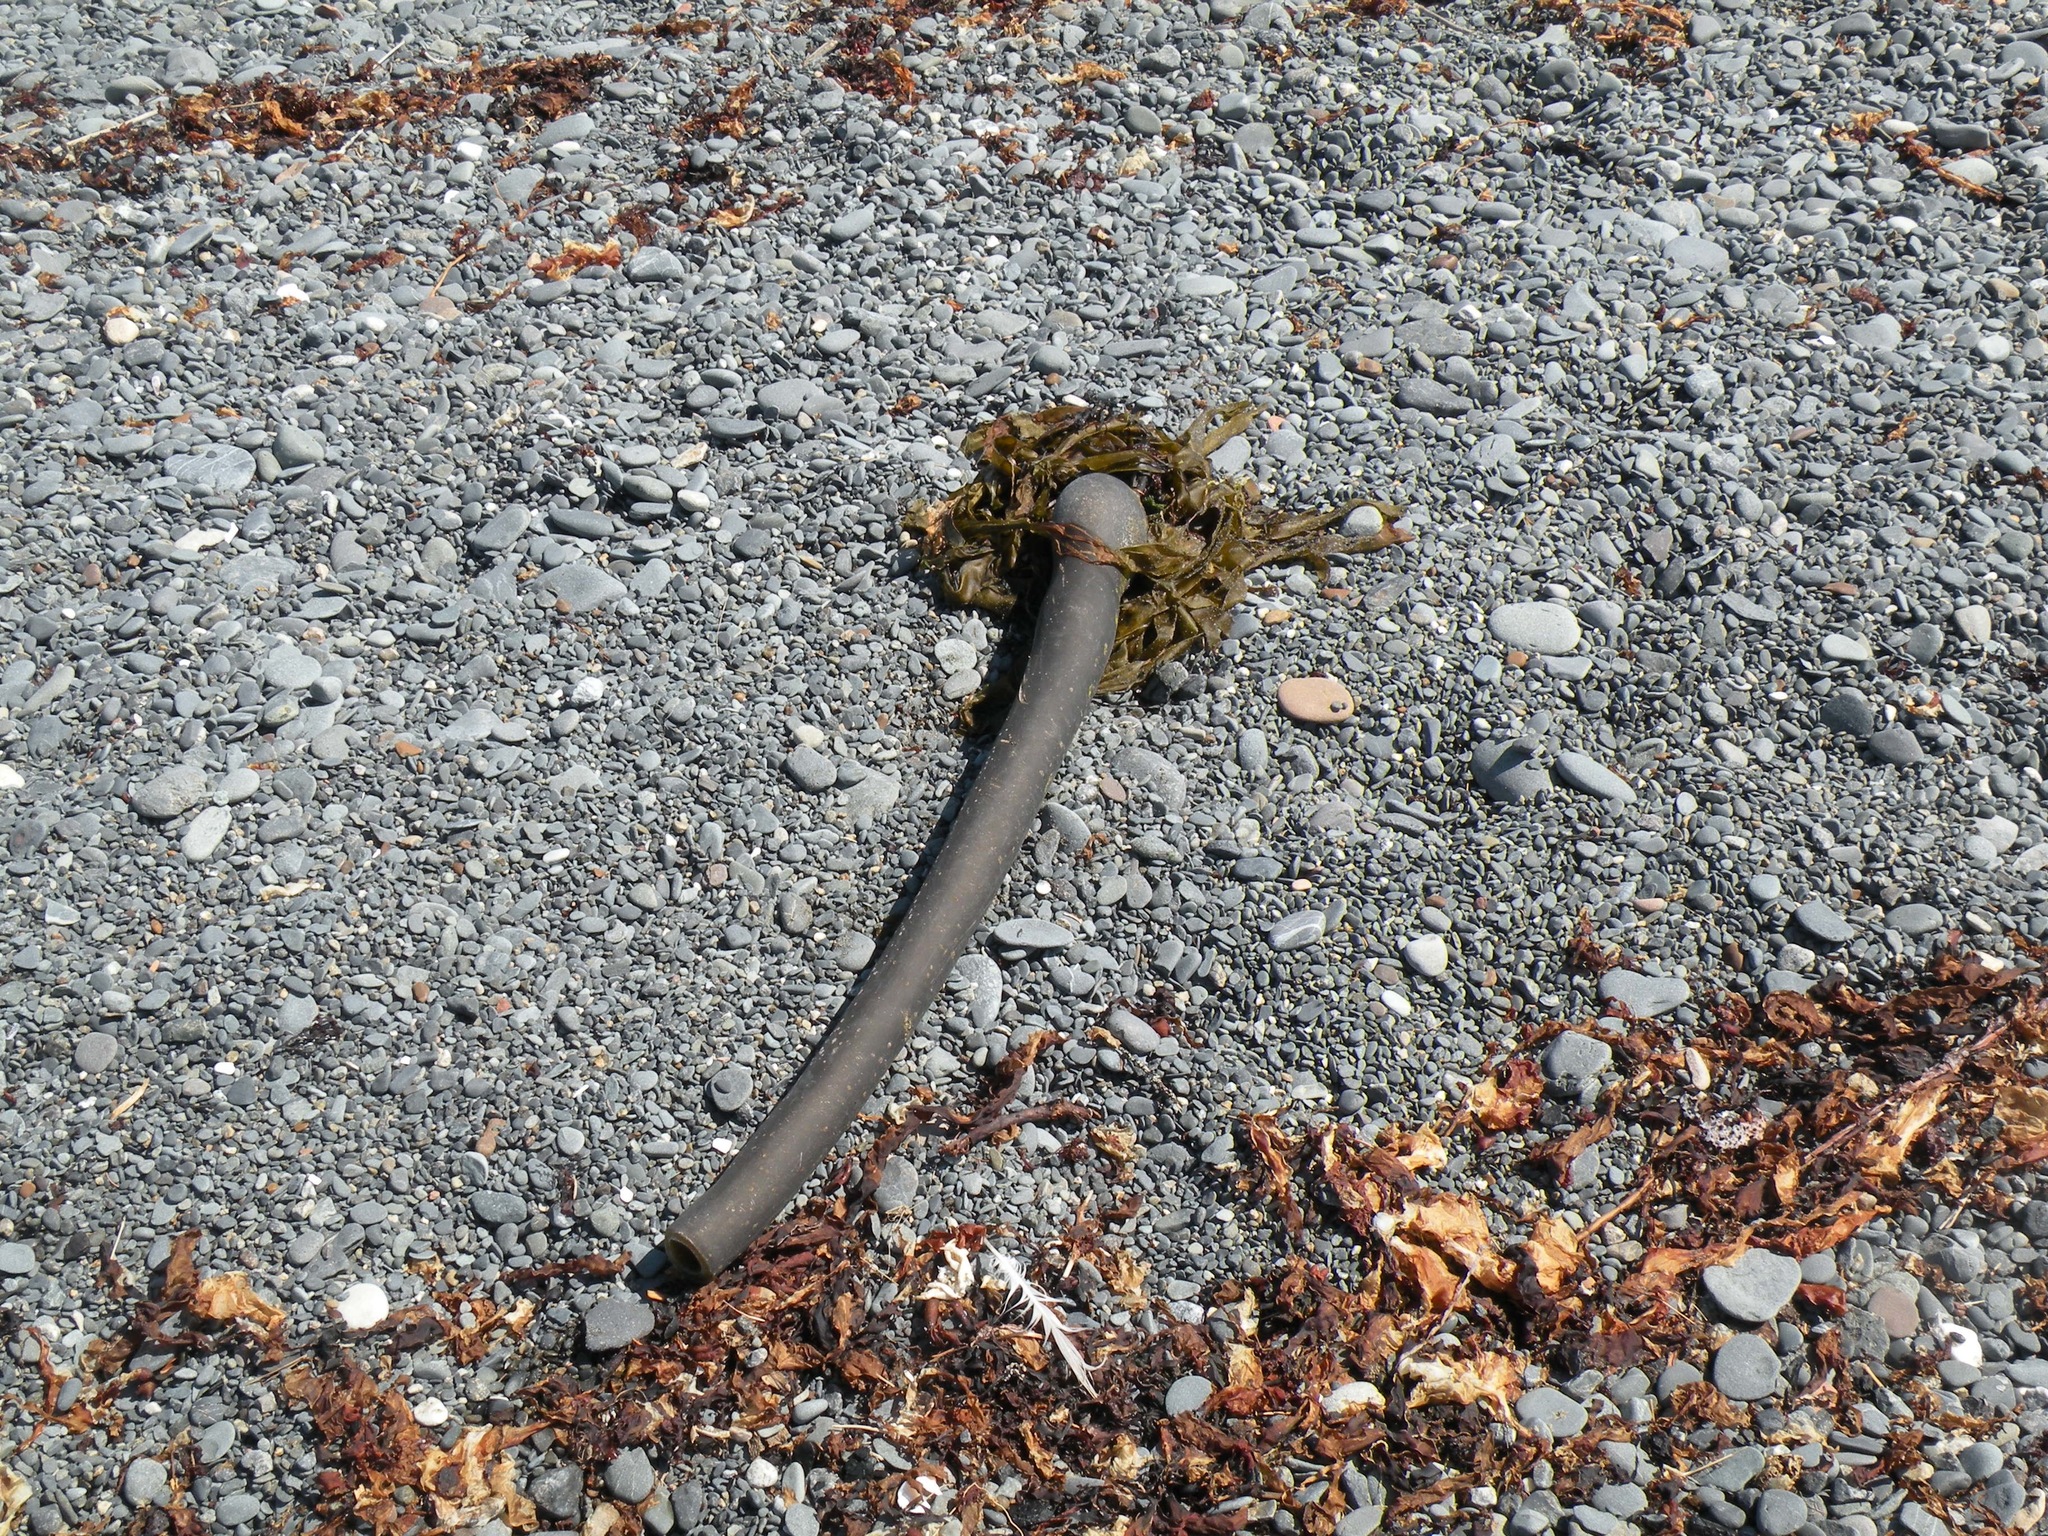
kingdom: Chromista
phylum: Ochrophyta
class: Phaeophyceae
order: Laminariales
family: Laminariaceae
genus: Nereocystis
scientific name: Nereocystis luetkeana
